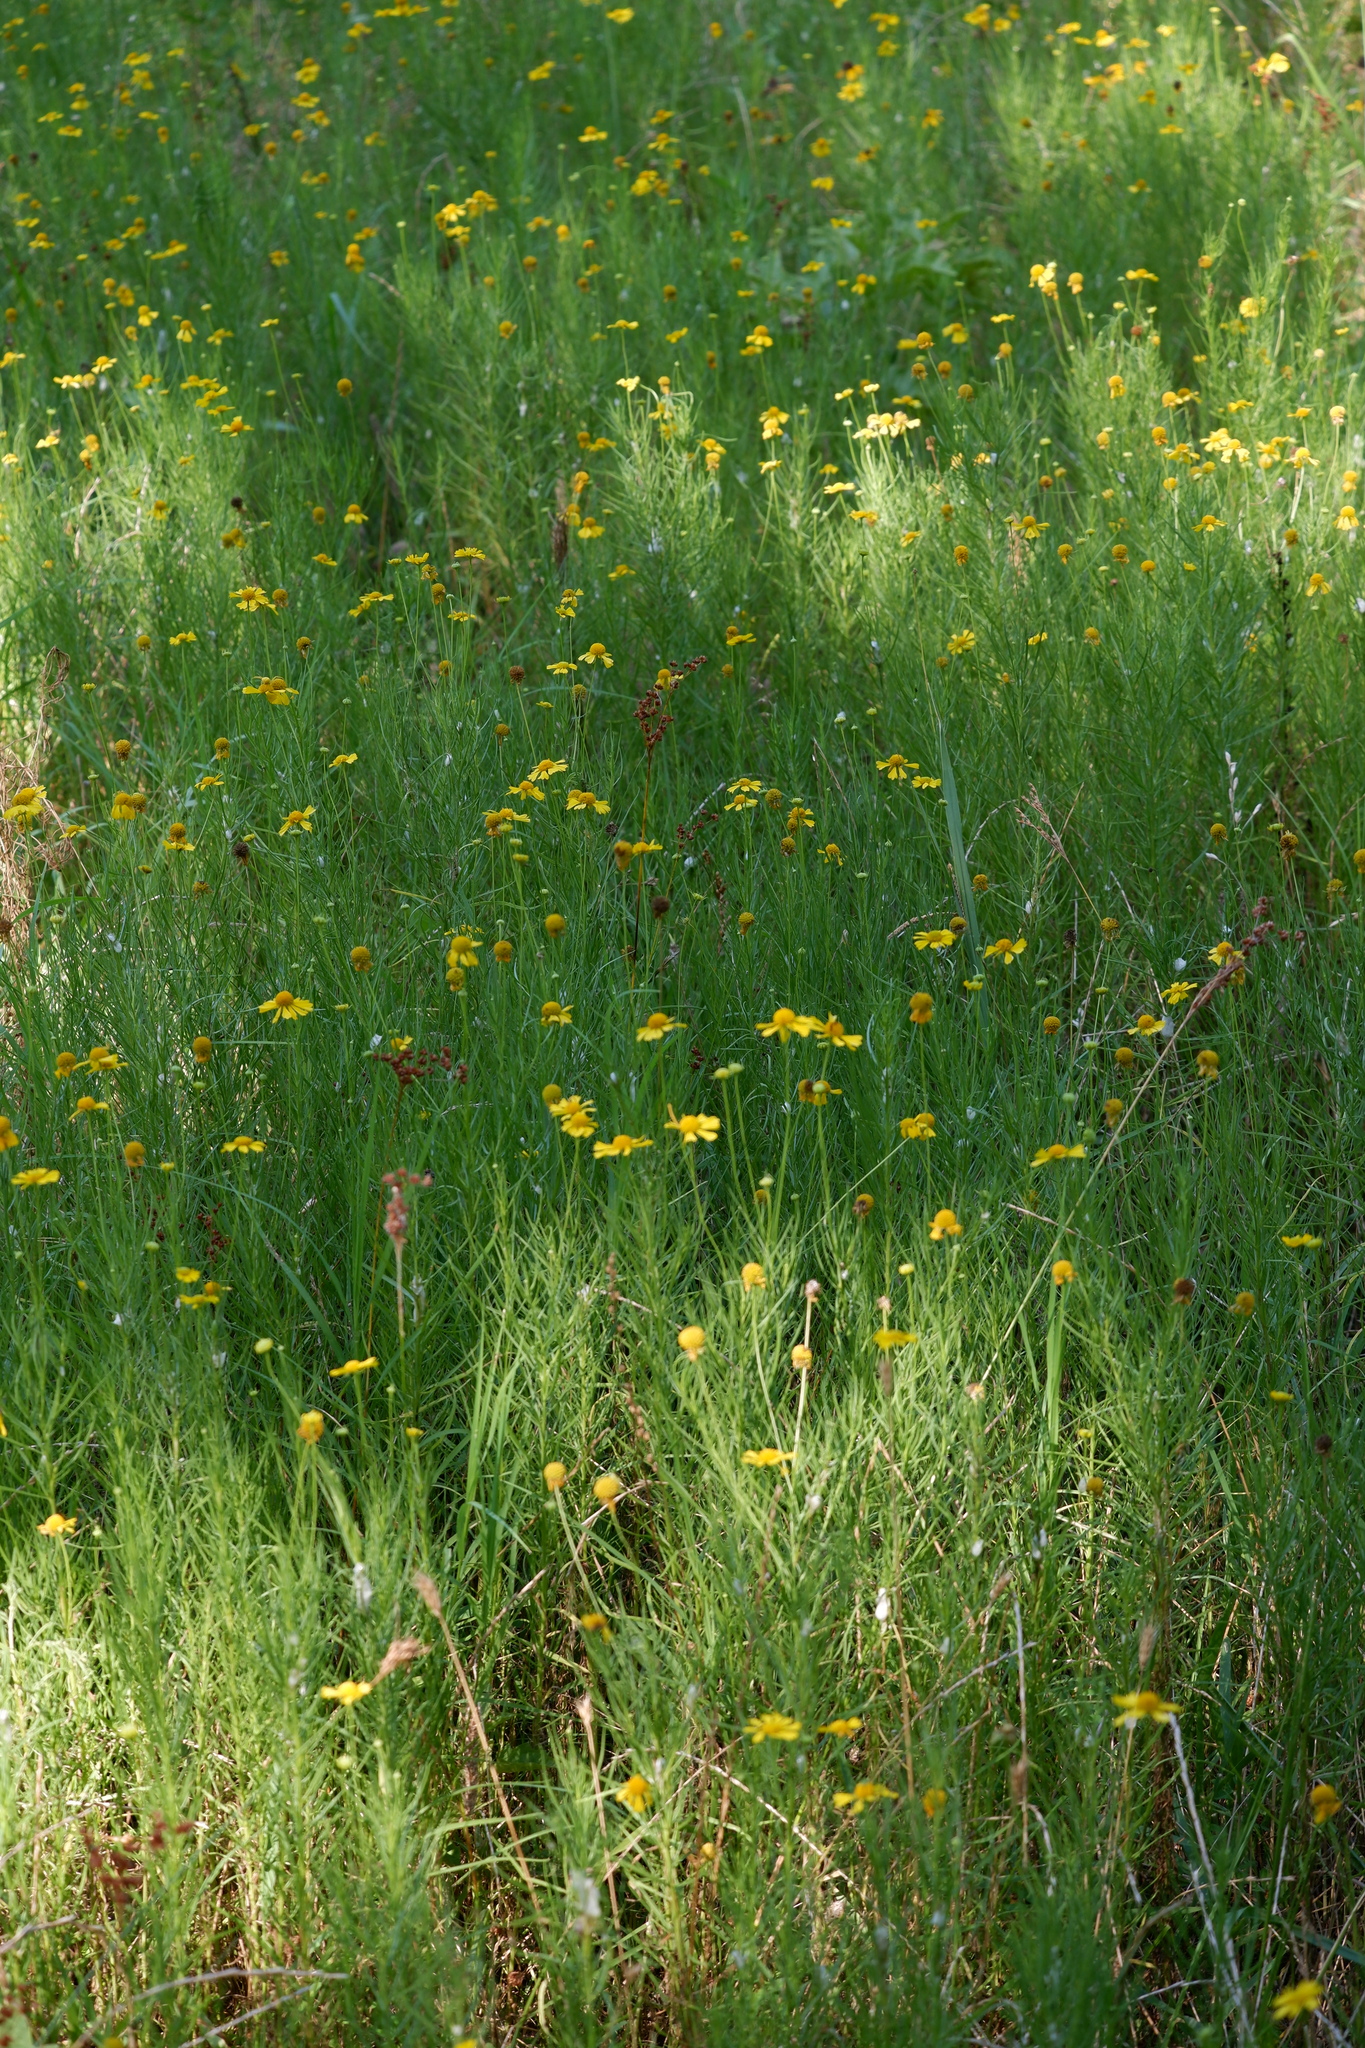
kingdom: Plantae
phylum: Tracheophyta
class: Magnoliopsida
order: Asterales
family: Asteraceae
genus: Helenium
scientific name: Helenium amarum
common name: Bitter sneezeweed
